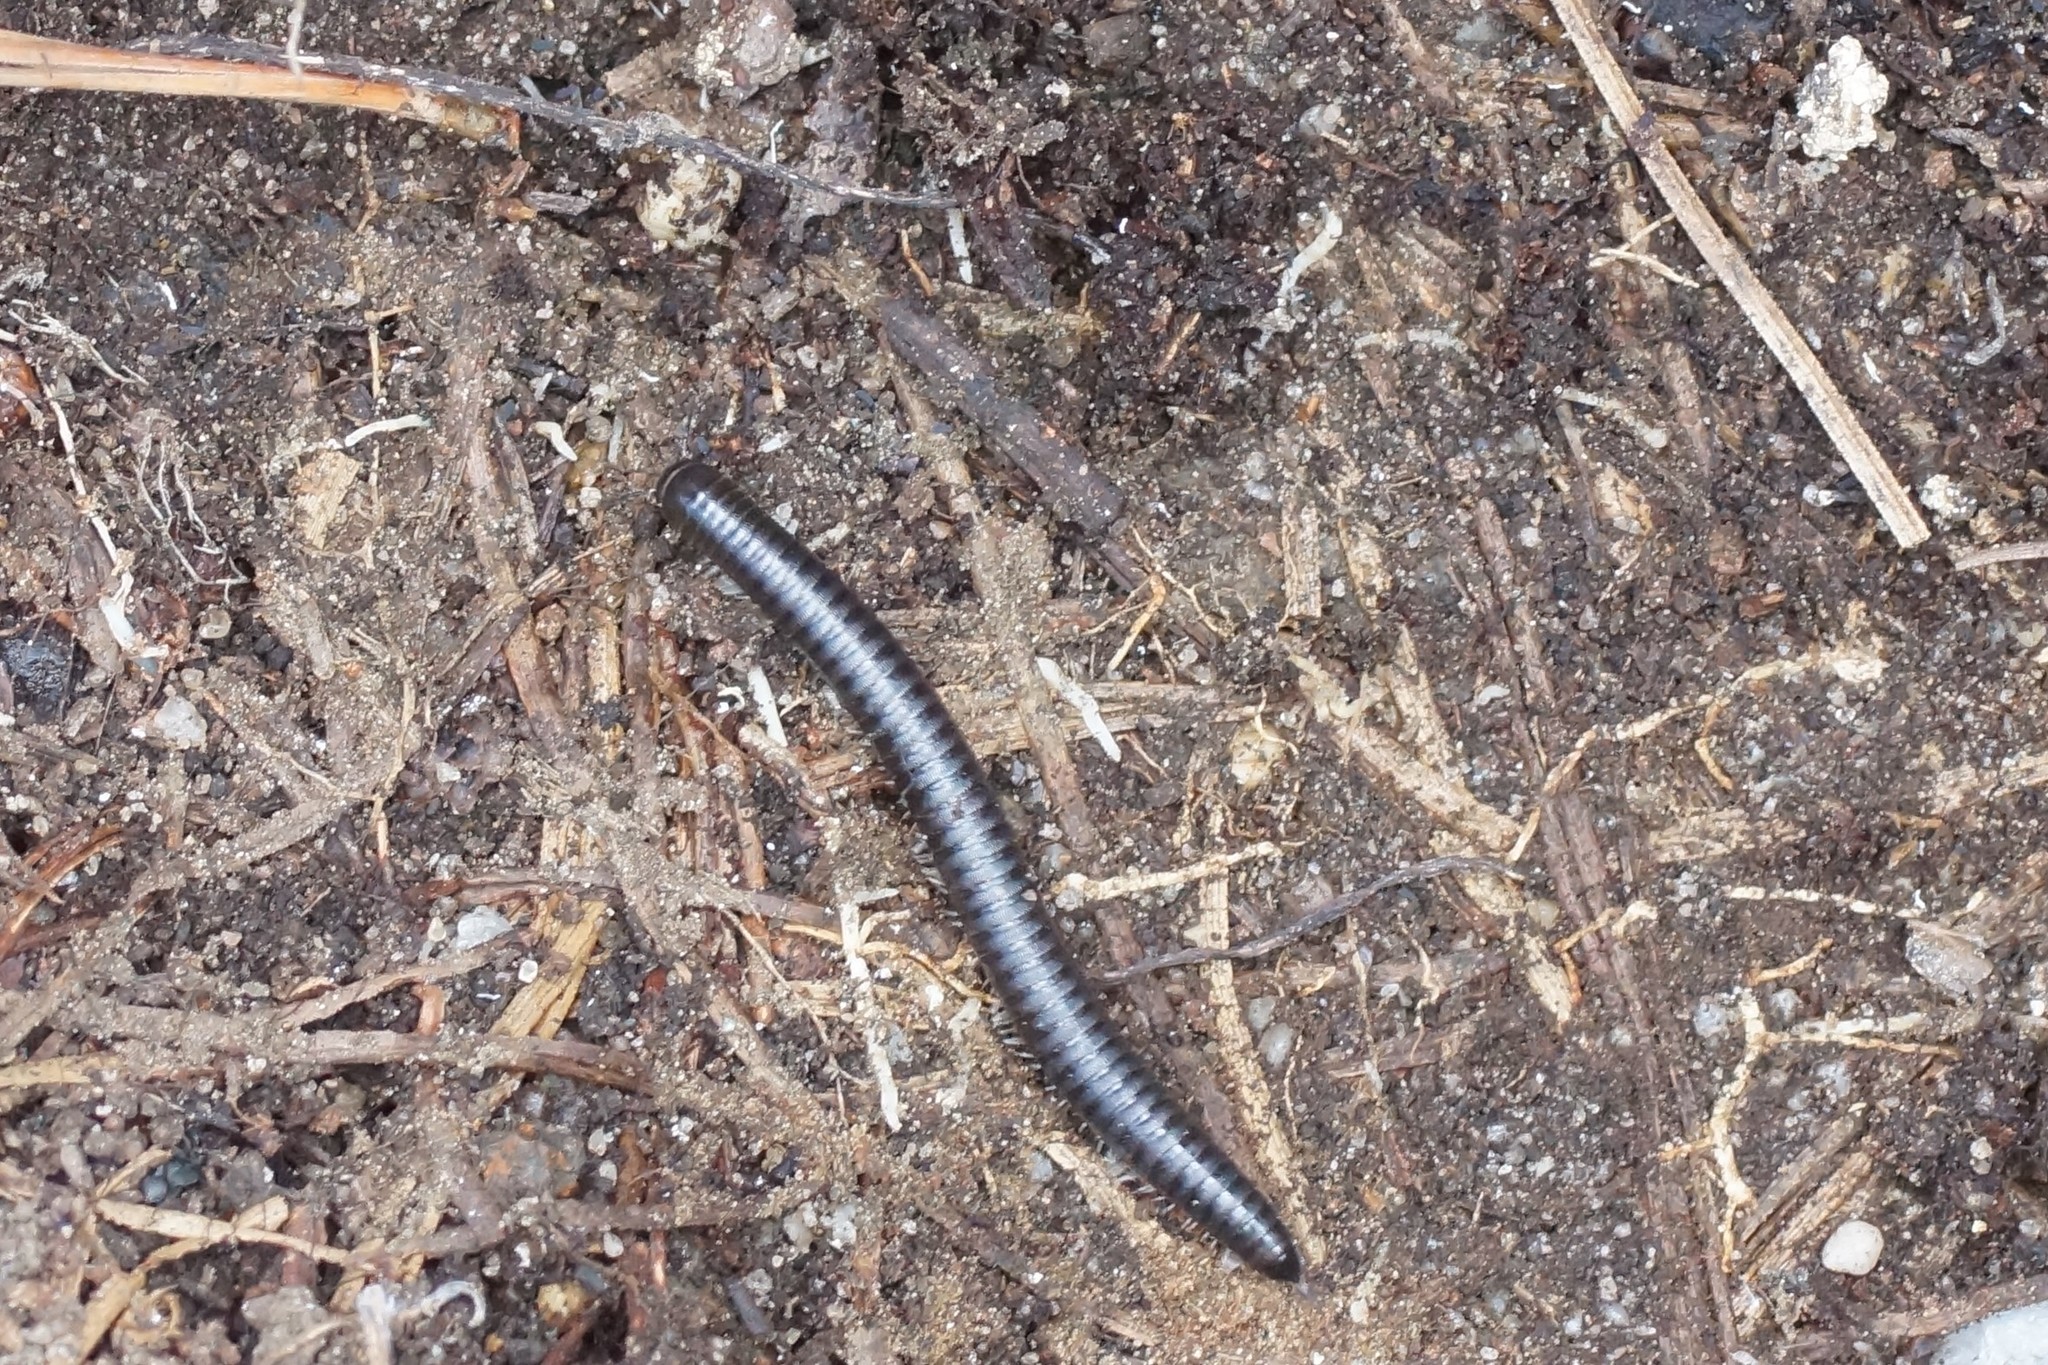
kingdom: Animalia
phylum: Arthropoda
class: Diplopoda
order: Julida
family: Julidae
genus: Ommatoiulus
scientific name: Ommatoiulus moreleti
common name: Portuguese millipede
